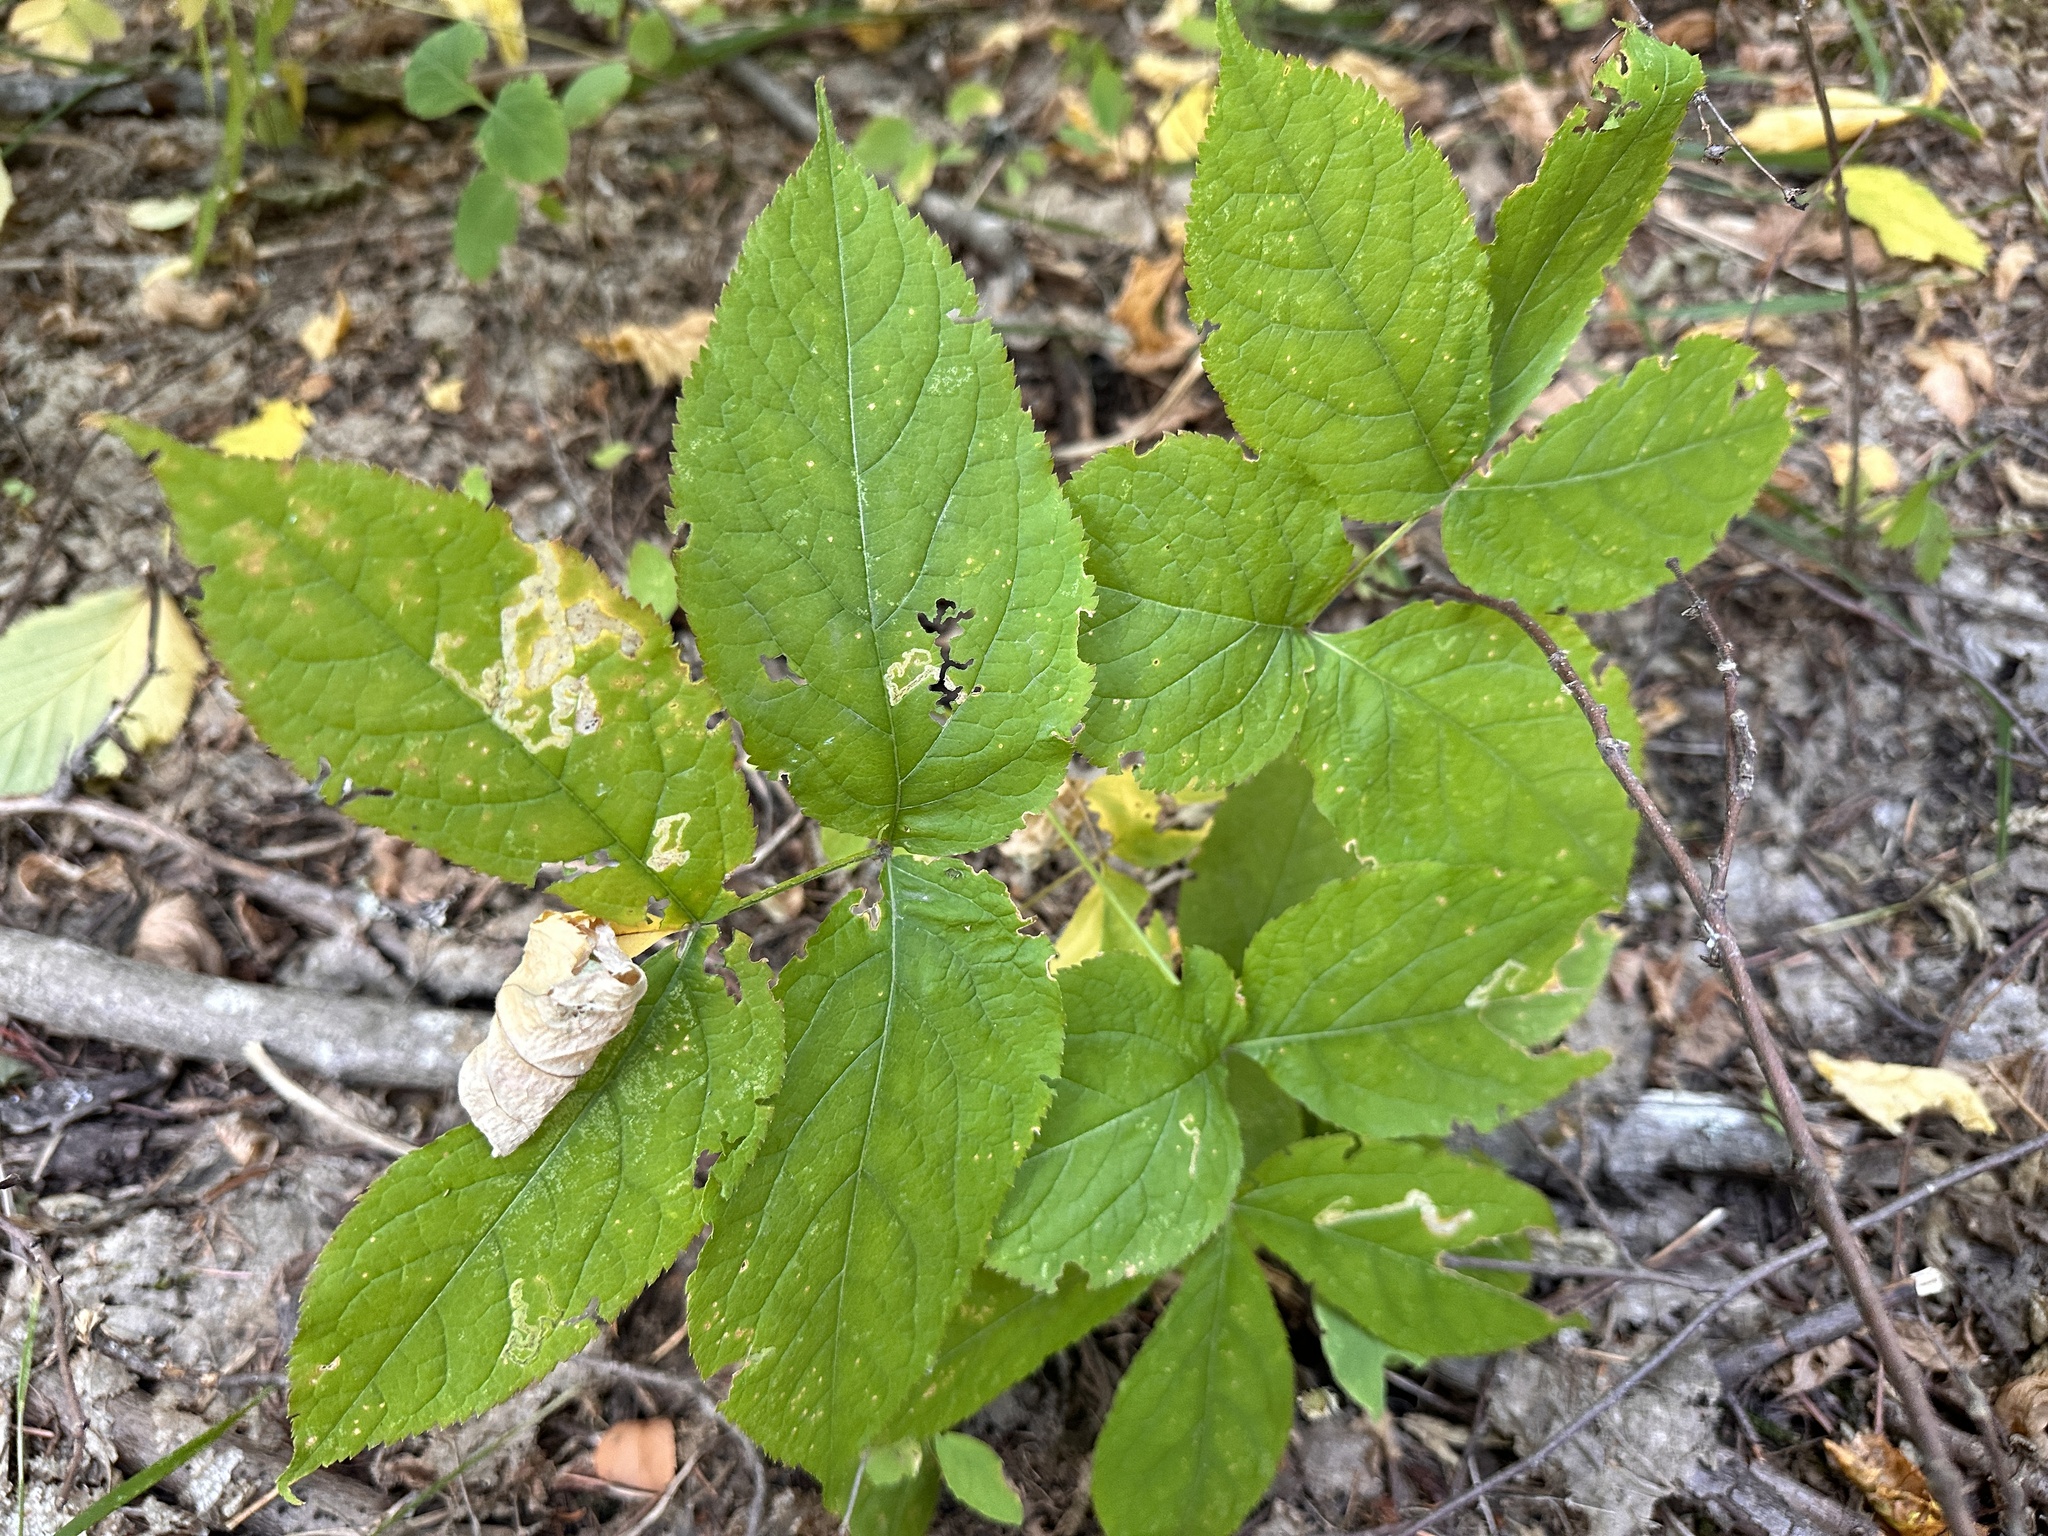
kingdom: Plantae
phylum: Tracheophyta
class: Magnoliopsida
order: Apiales
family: Araliaceae
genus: Aralia
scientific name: Aralia nudicaulis
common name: Wild sarsaparilla
